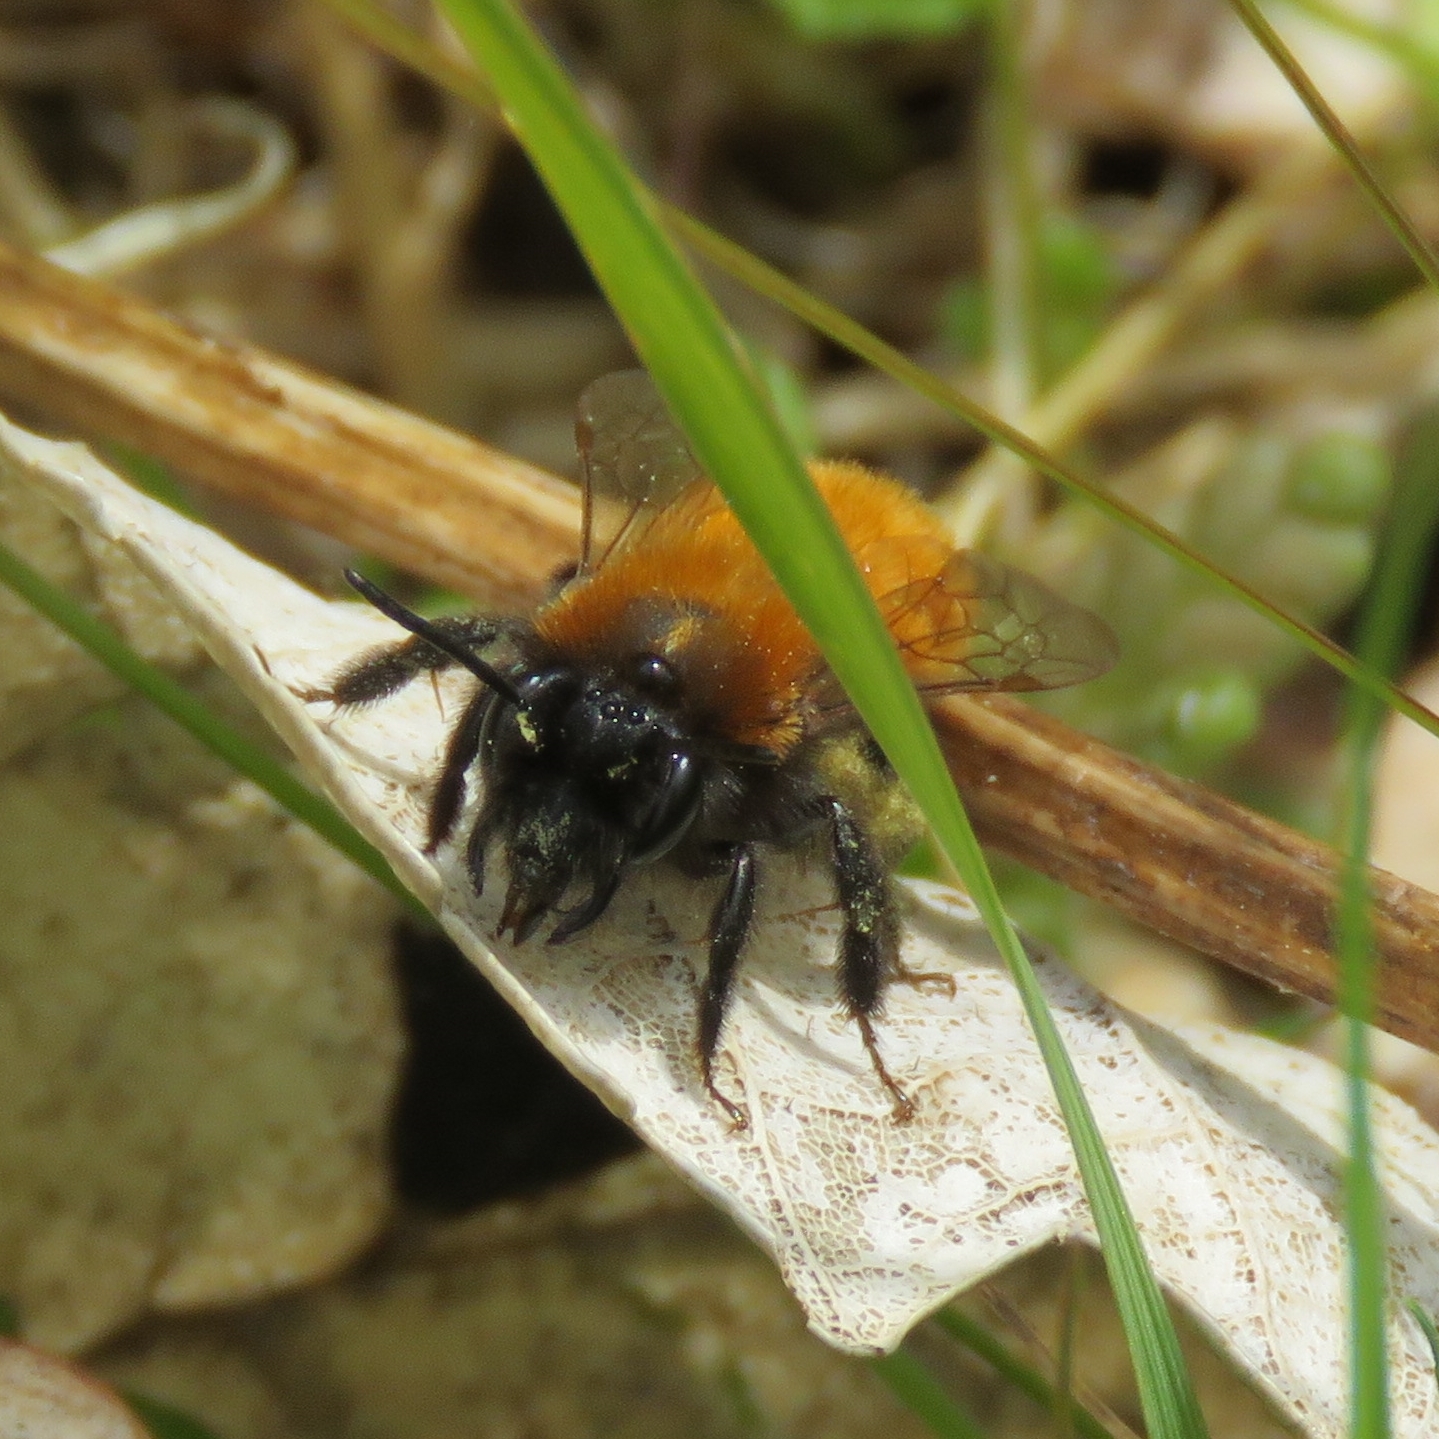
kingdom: Animalia
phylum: Arthropoda
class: Insecta
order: Hymenoptera
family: Andrenidae
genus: Andrena
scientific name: Andrena fulva
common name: Tawny mining bee
